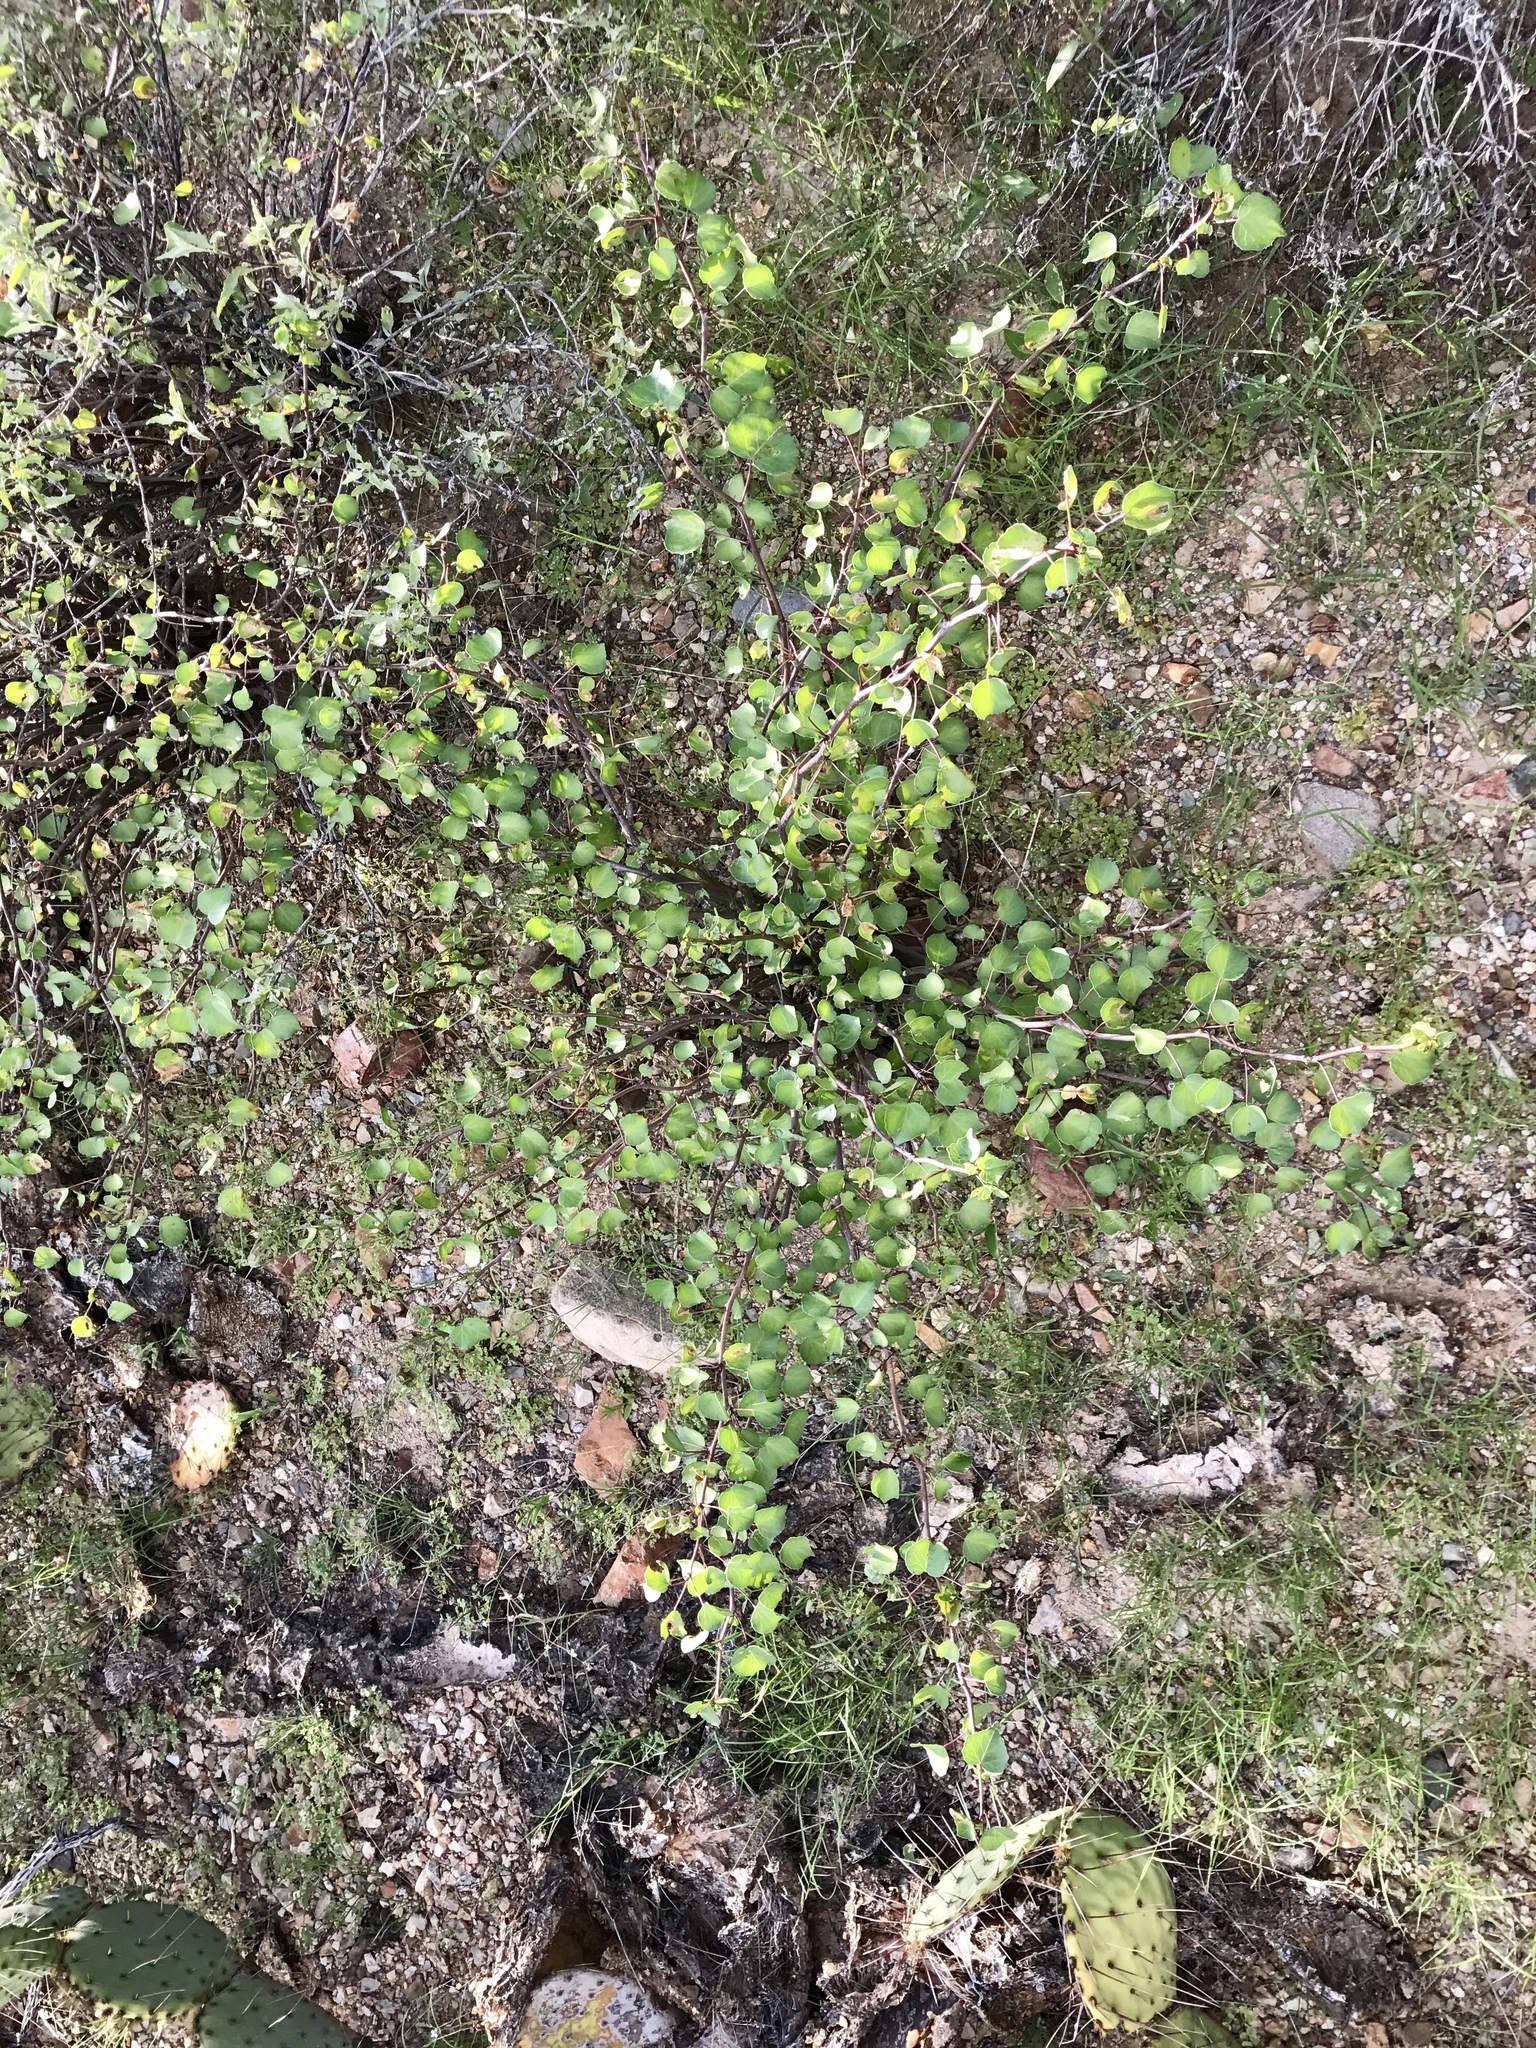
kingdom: Plantae
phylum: Tracheophyta
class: Magnoliopsida
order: Malpighiales
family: Euphorbiaceae
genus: Jatropha
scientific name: Jatropha cardiophylla
